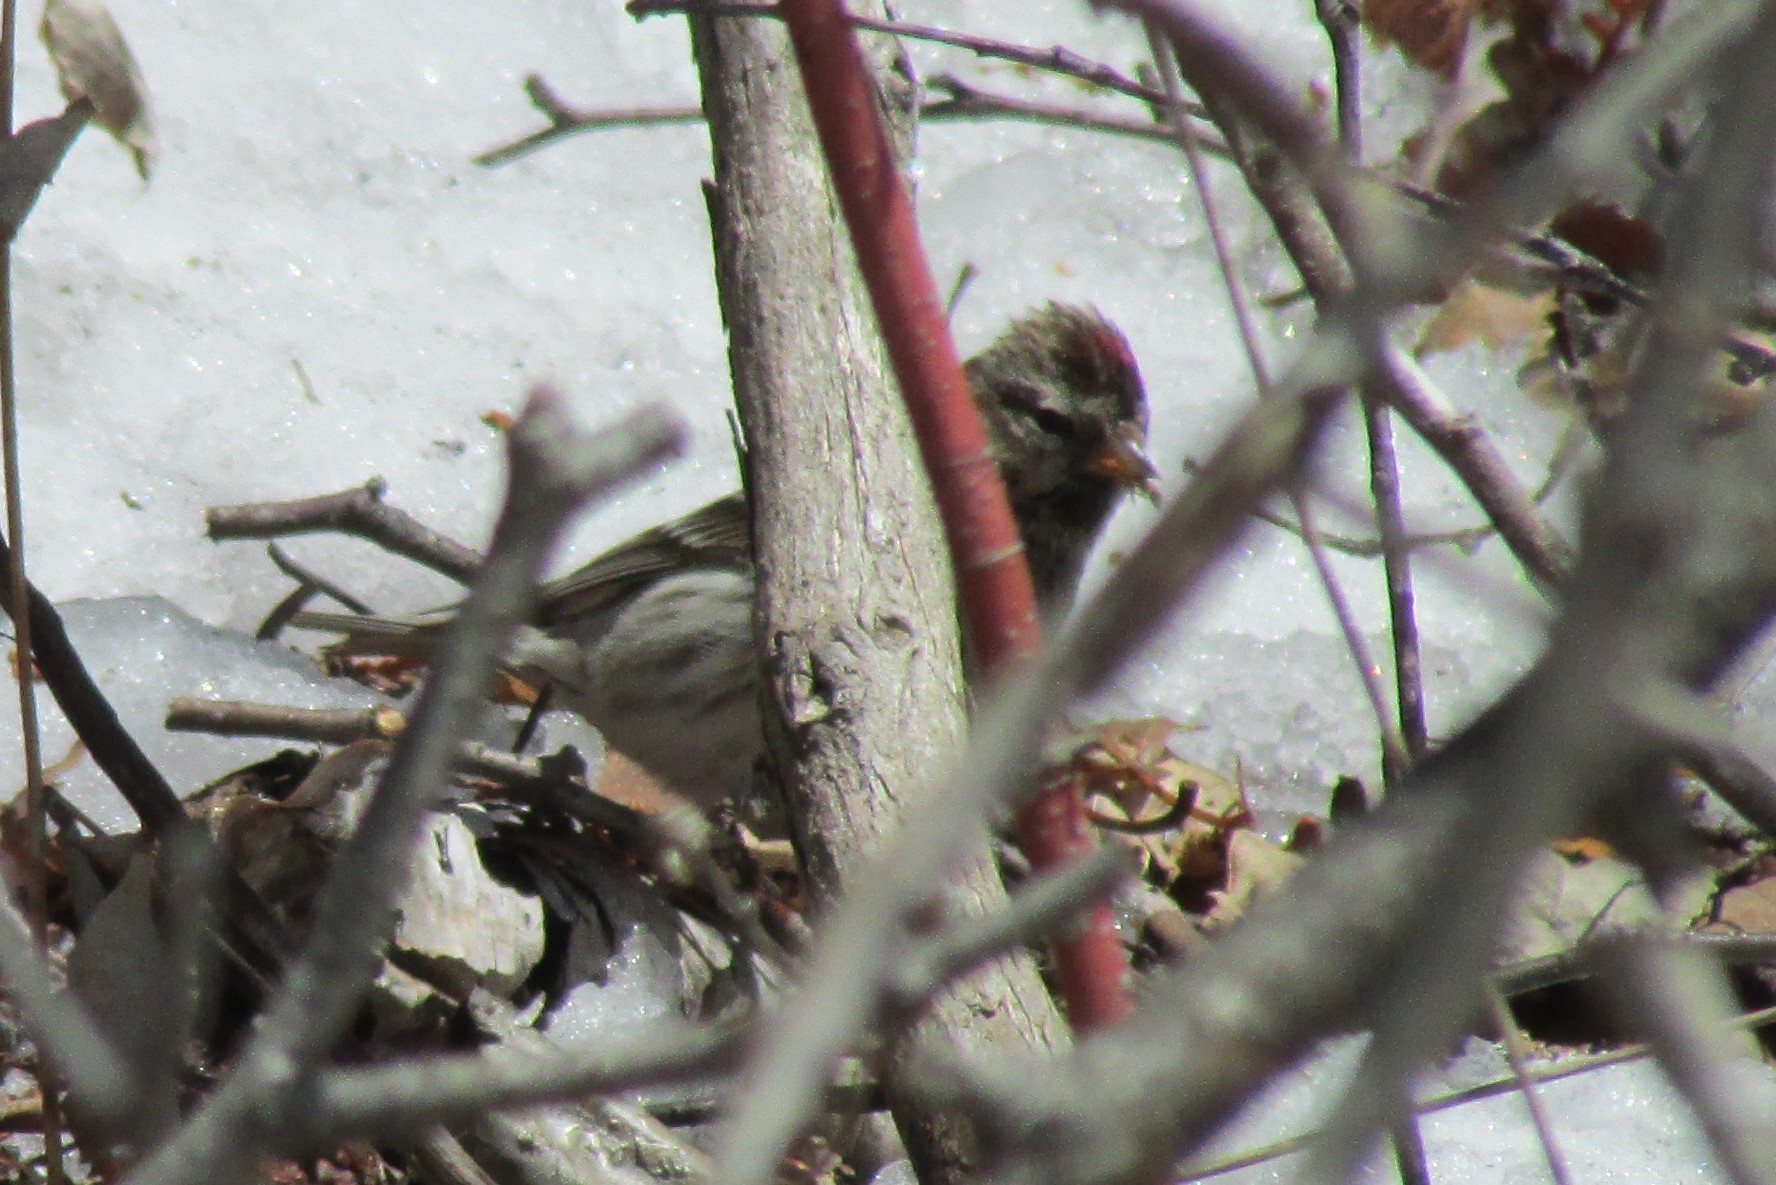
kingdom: Animalia
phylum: Chordata
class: Aves
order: Passeriformes
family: Fringillidae
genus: Acanthis
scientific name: Acanthis flammea
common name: Common redpoll
